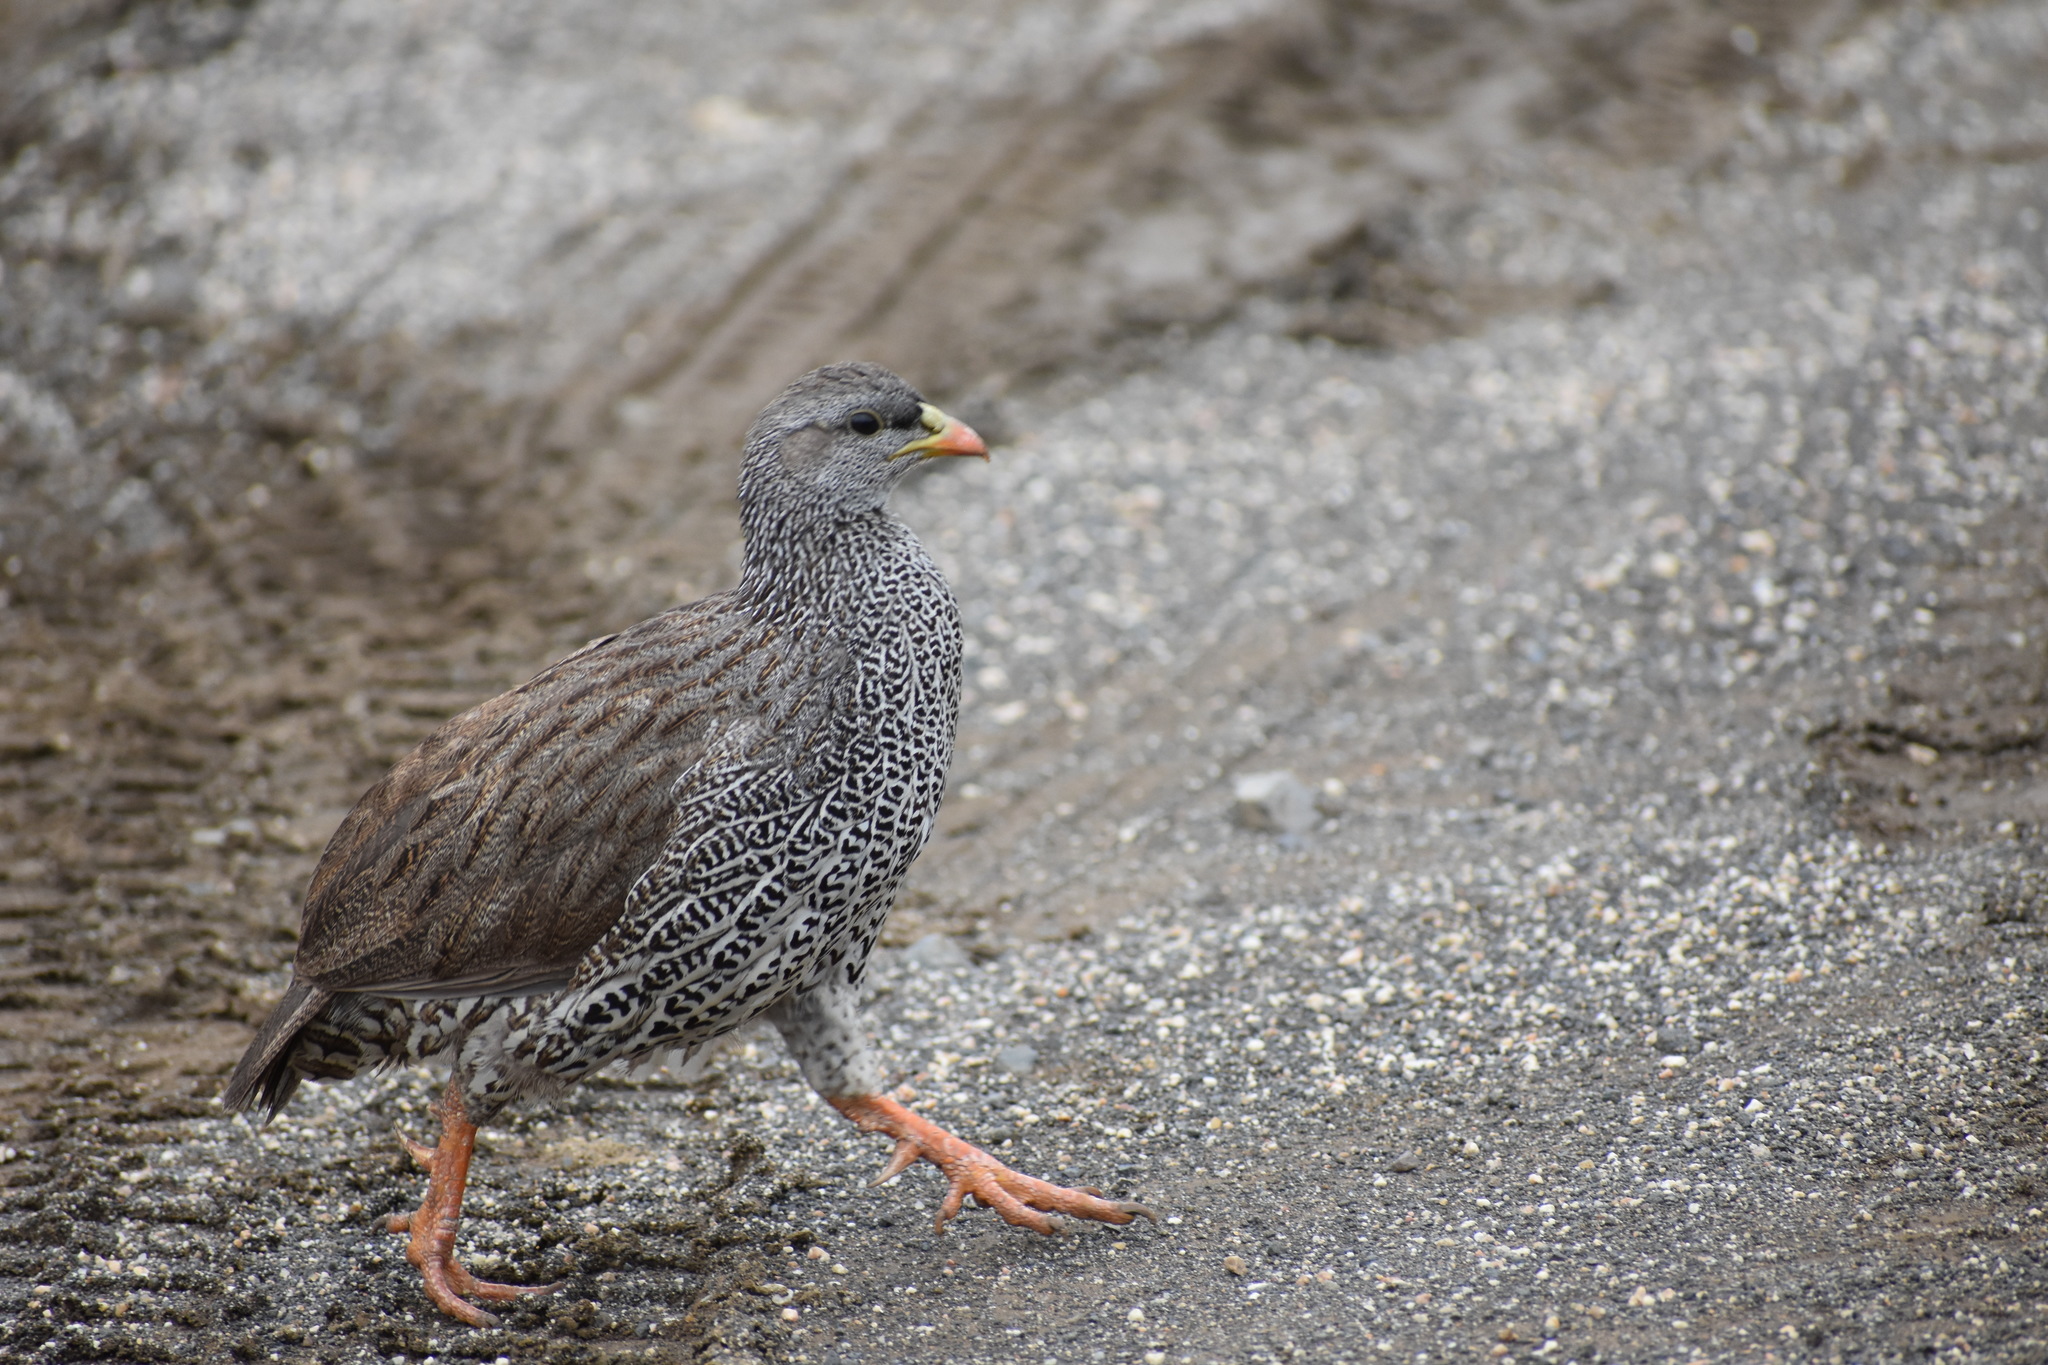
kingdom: Animalia
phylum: Chordata
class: Aves
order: Galliformes
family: Phasianidae
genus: Pternistis
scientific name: Pternistis natalensis
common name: Natal spurfowl
